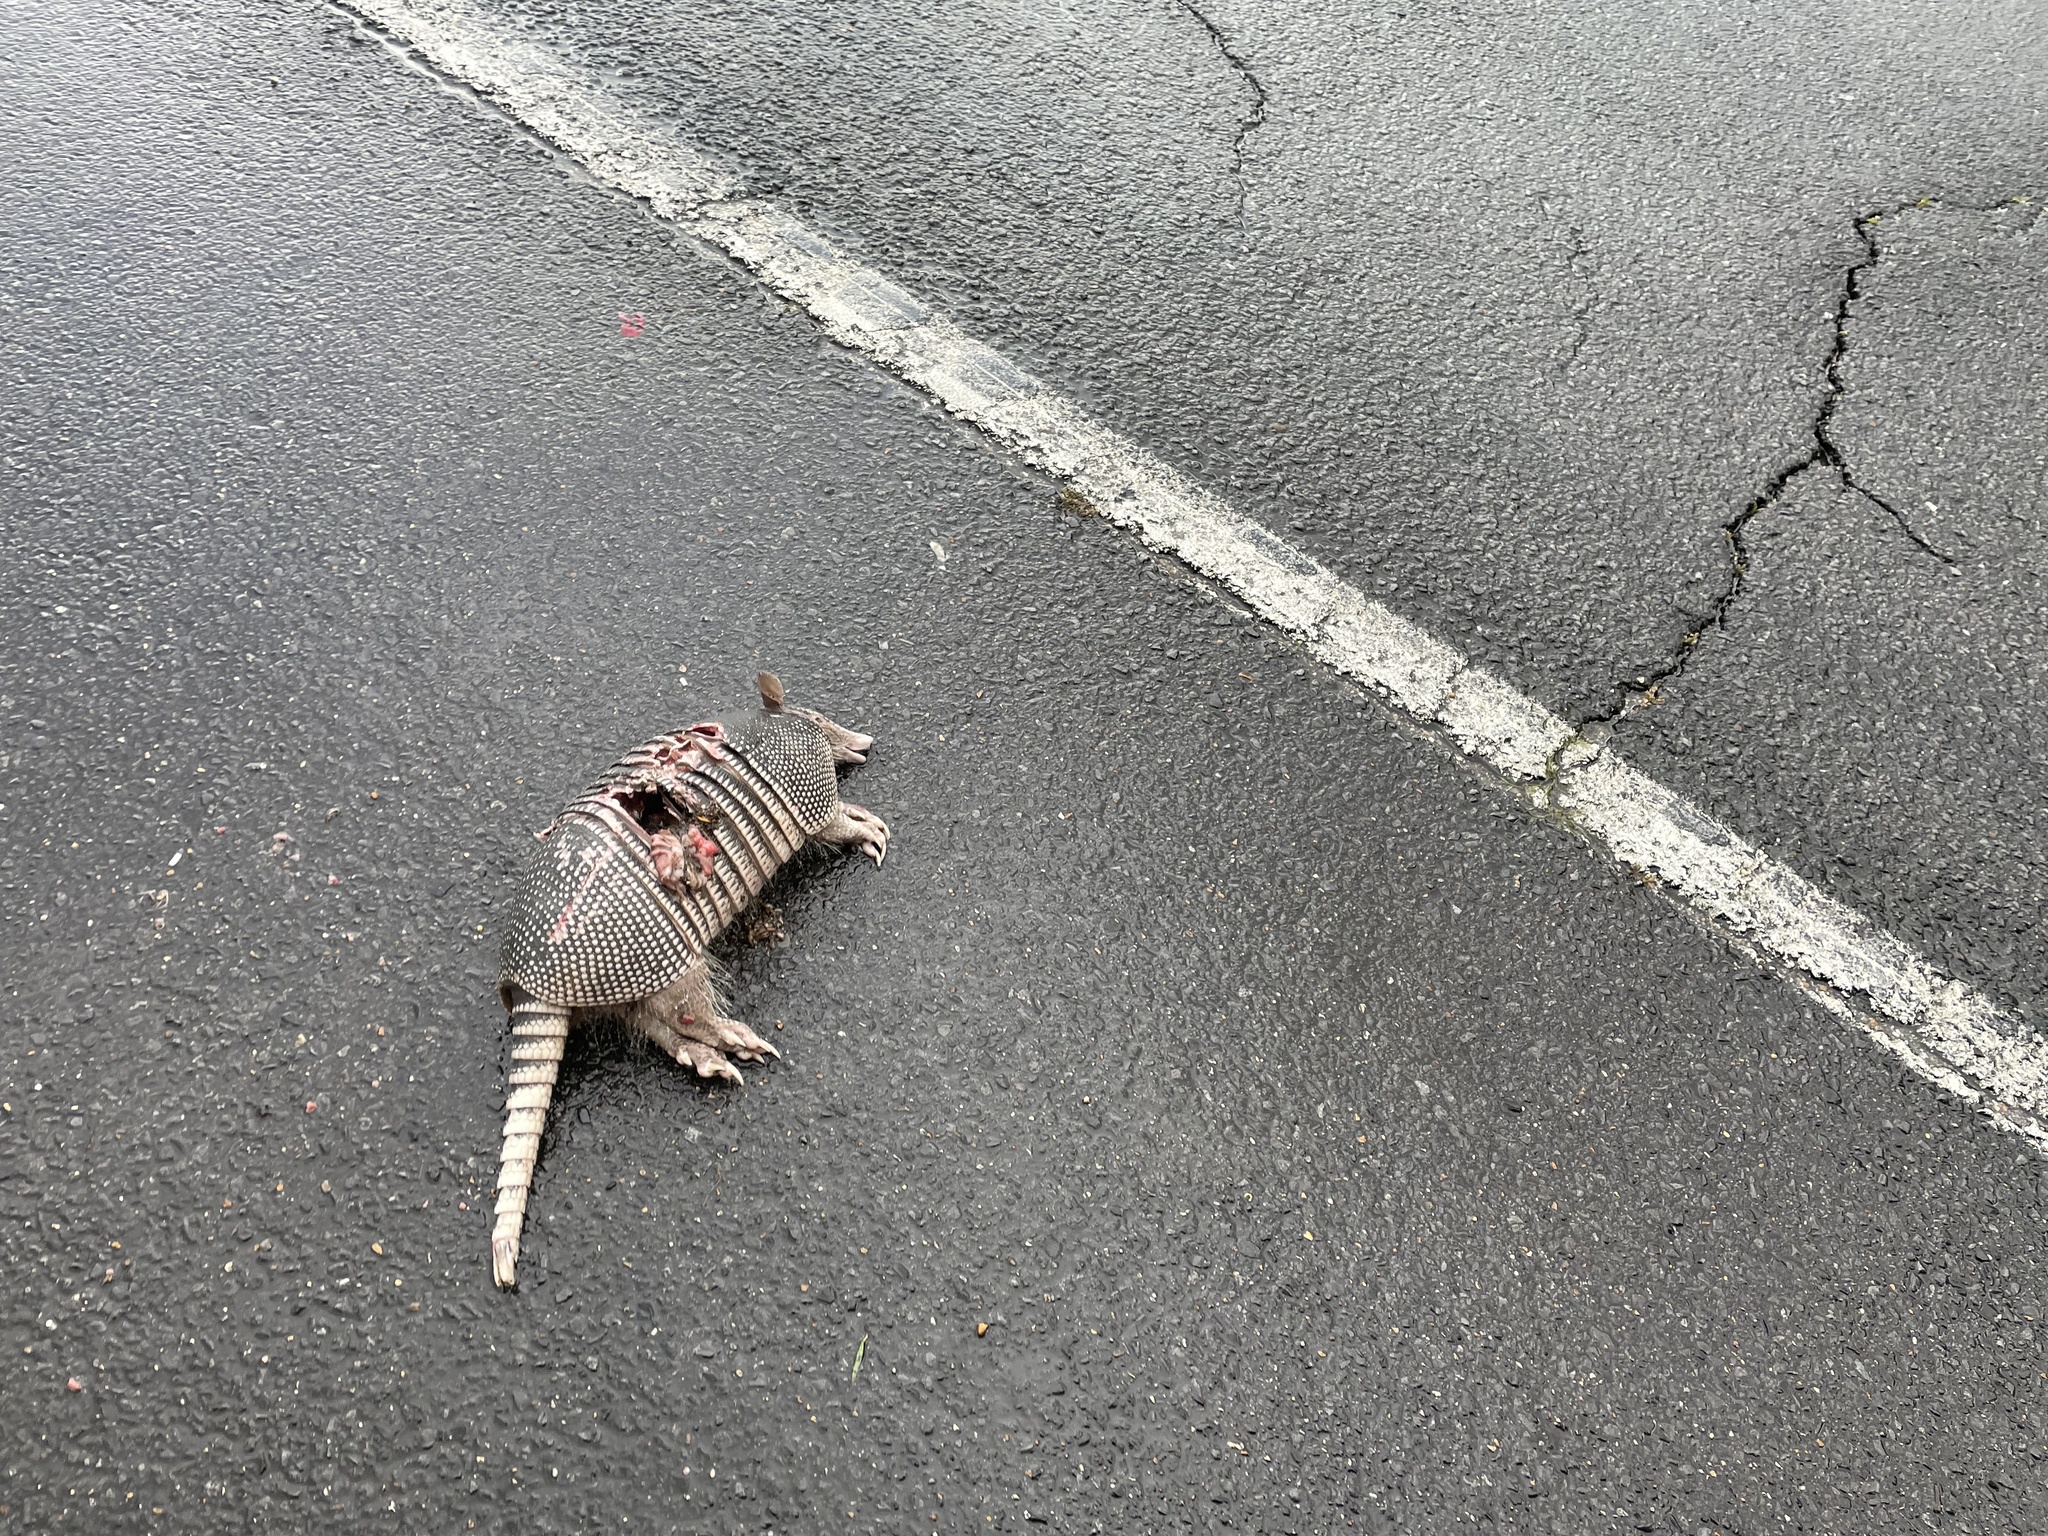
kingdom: Animalia
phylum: Chordata
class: Mammalia
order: Cingulata
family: Dasypodidae
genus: Dasypus
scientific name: Dasypus novemcinctus
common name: Nine-banded armadillo
